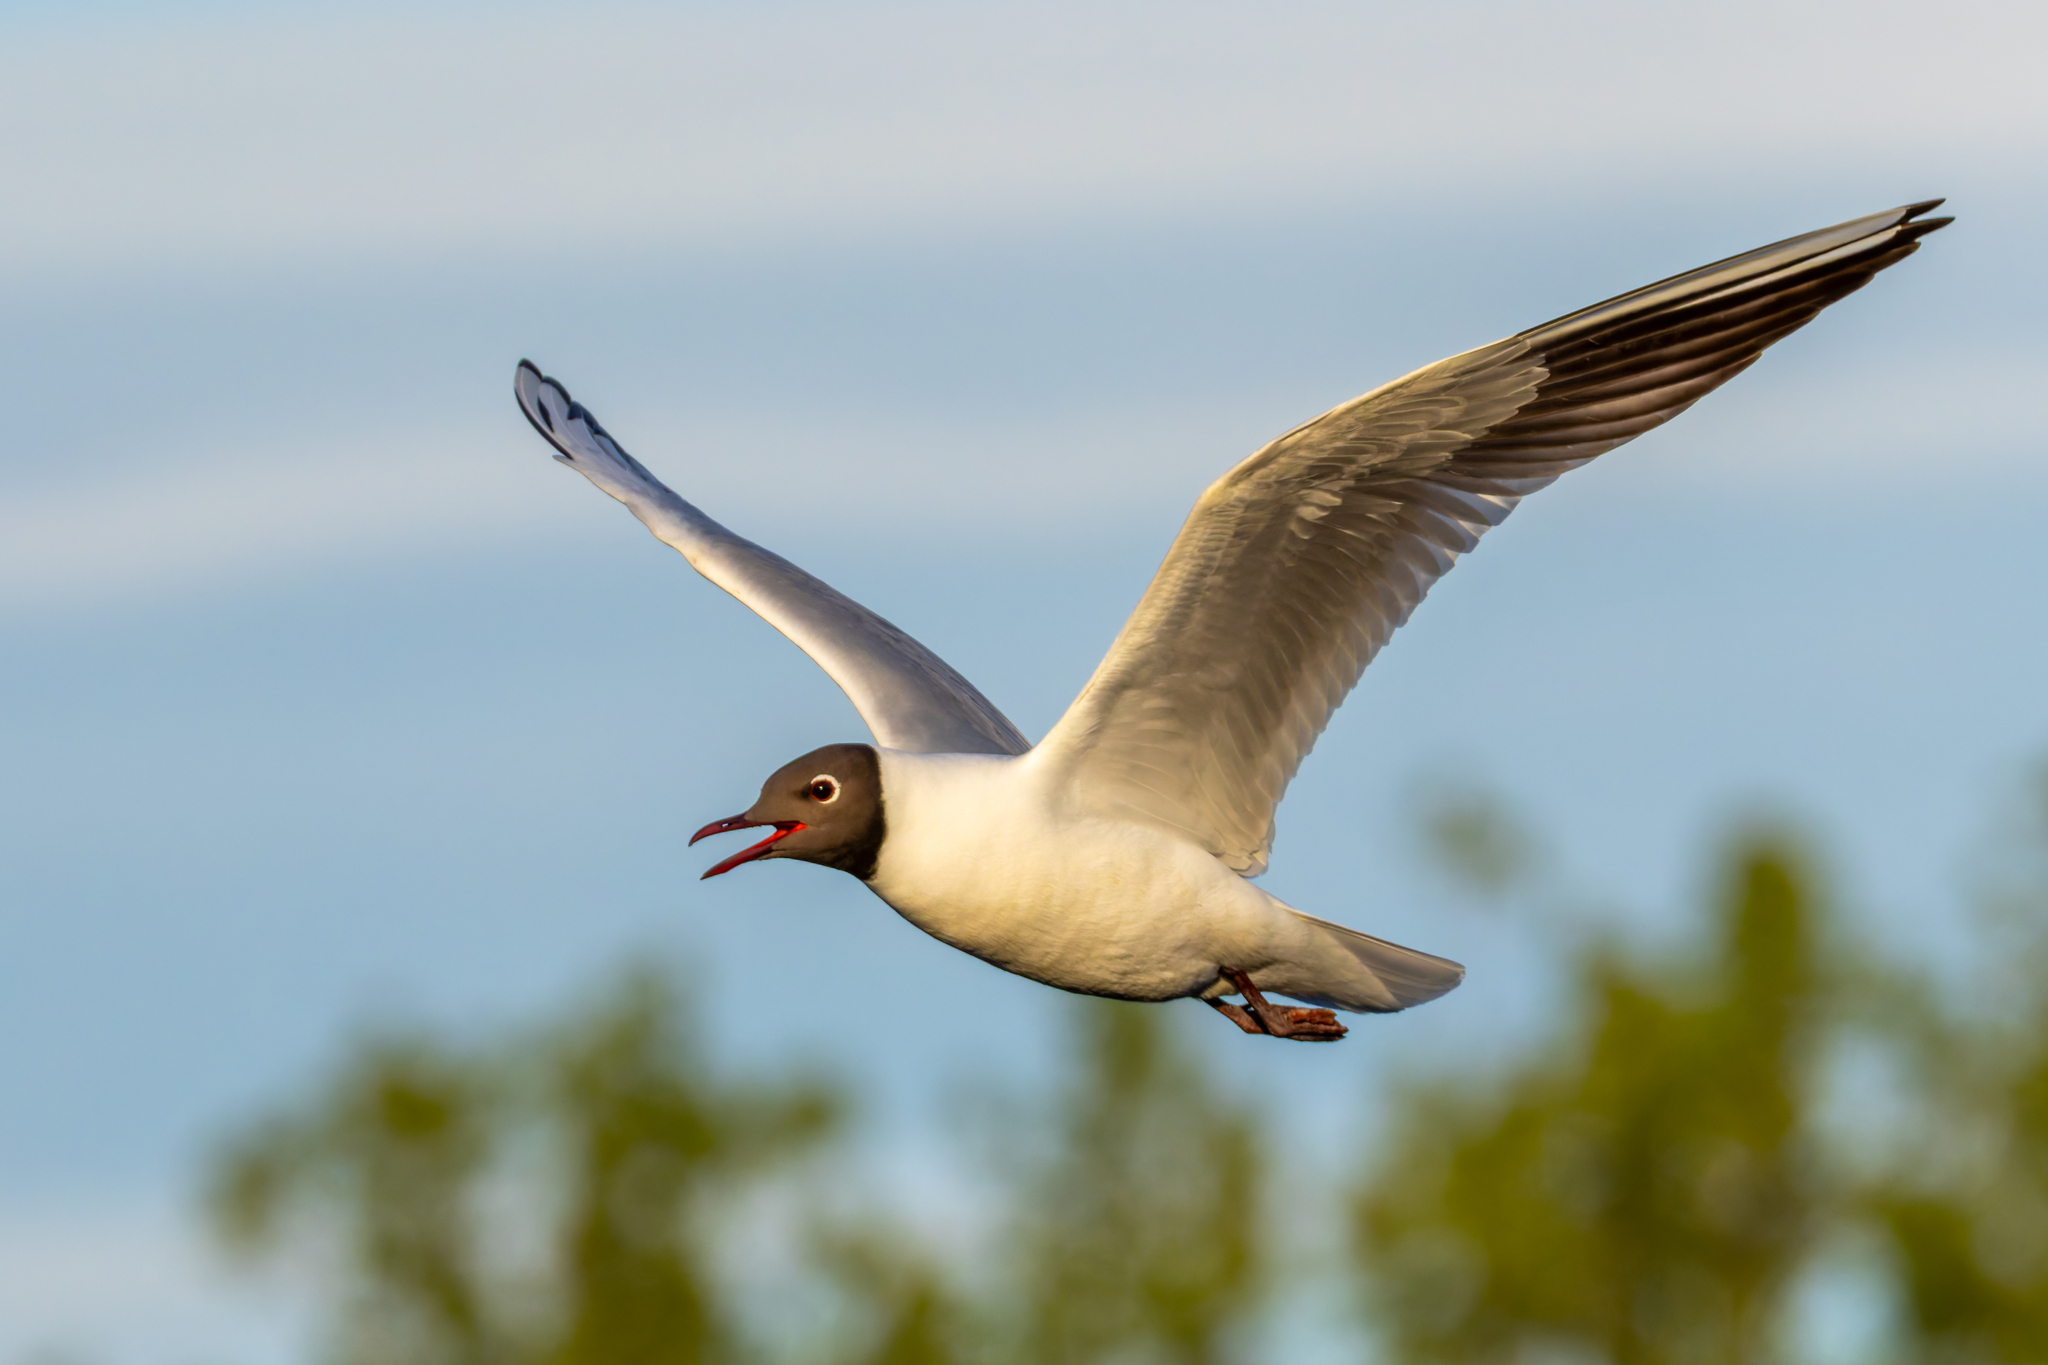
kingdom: Animalia
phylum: Chordata
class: Aves
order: Charadriiformes
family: Laridae
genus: Chroicocephalus
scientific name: Chroicocephalus ridibundus
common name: Black-headed gull
